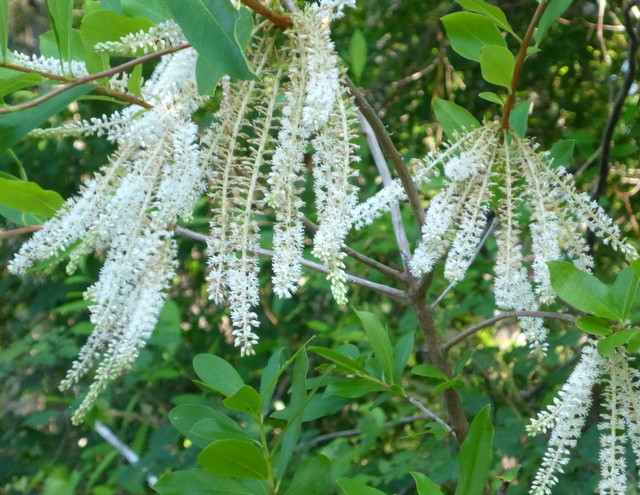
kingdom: Plantae
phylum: Tracheophyta
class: Magnoliopsida
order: Ericales
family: Cyrillaceae
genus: Cyrilla
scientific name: Cyrilla racemiflora
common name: Black titi
